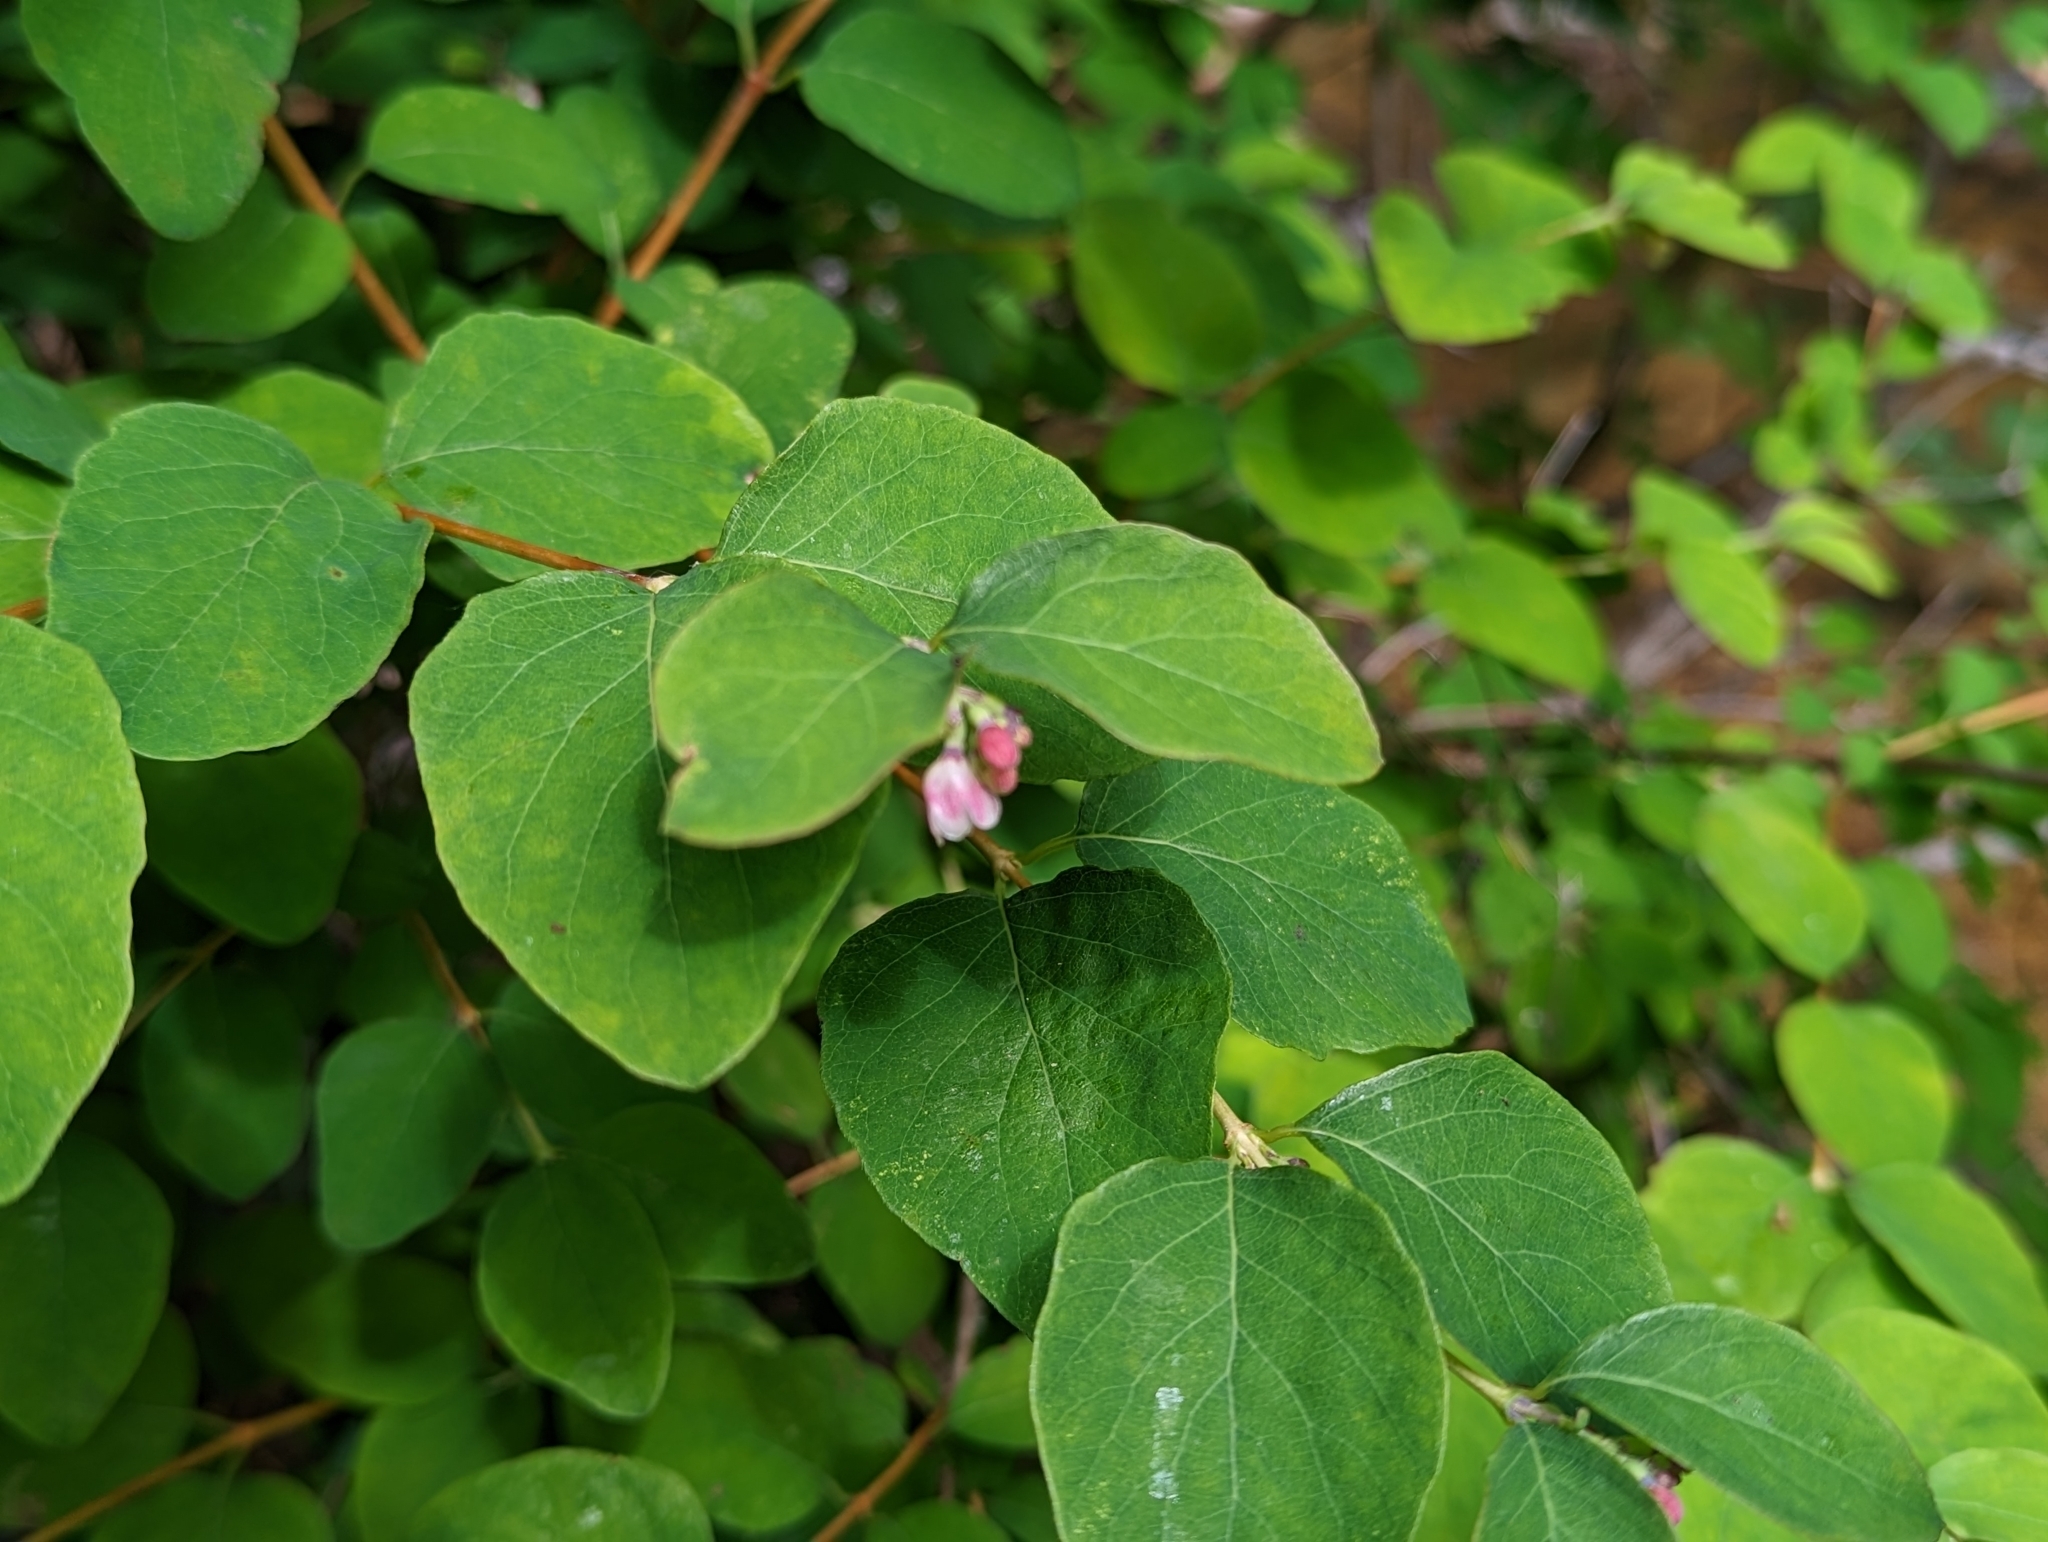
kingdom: Plantae
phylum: Tracheophyta
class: Magnoliopsida
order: Dipsacales
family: Caprifoliaceae
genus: Symphoricarpos
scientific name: Symphoricarpos albus
